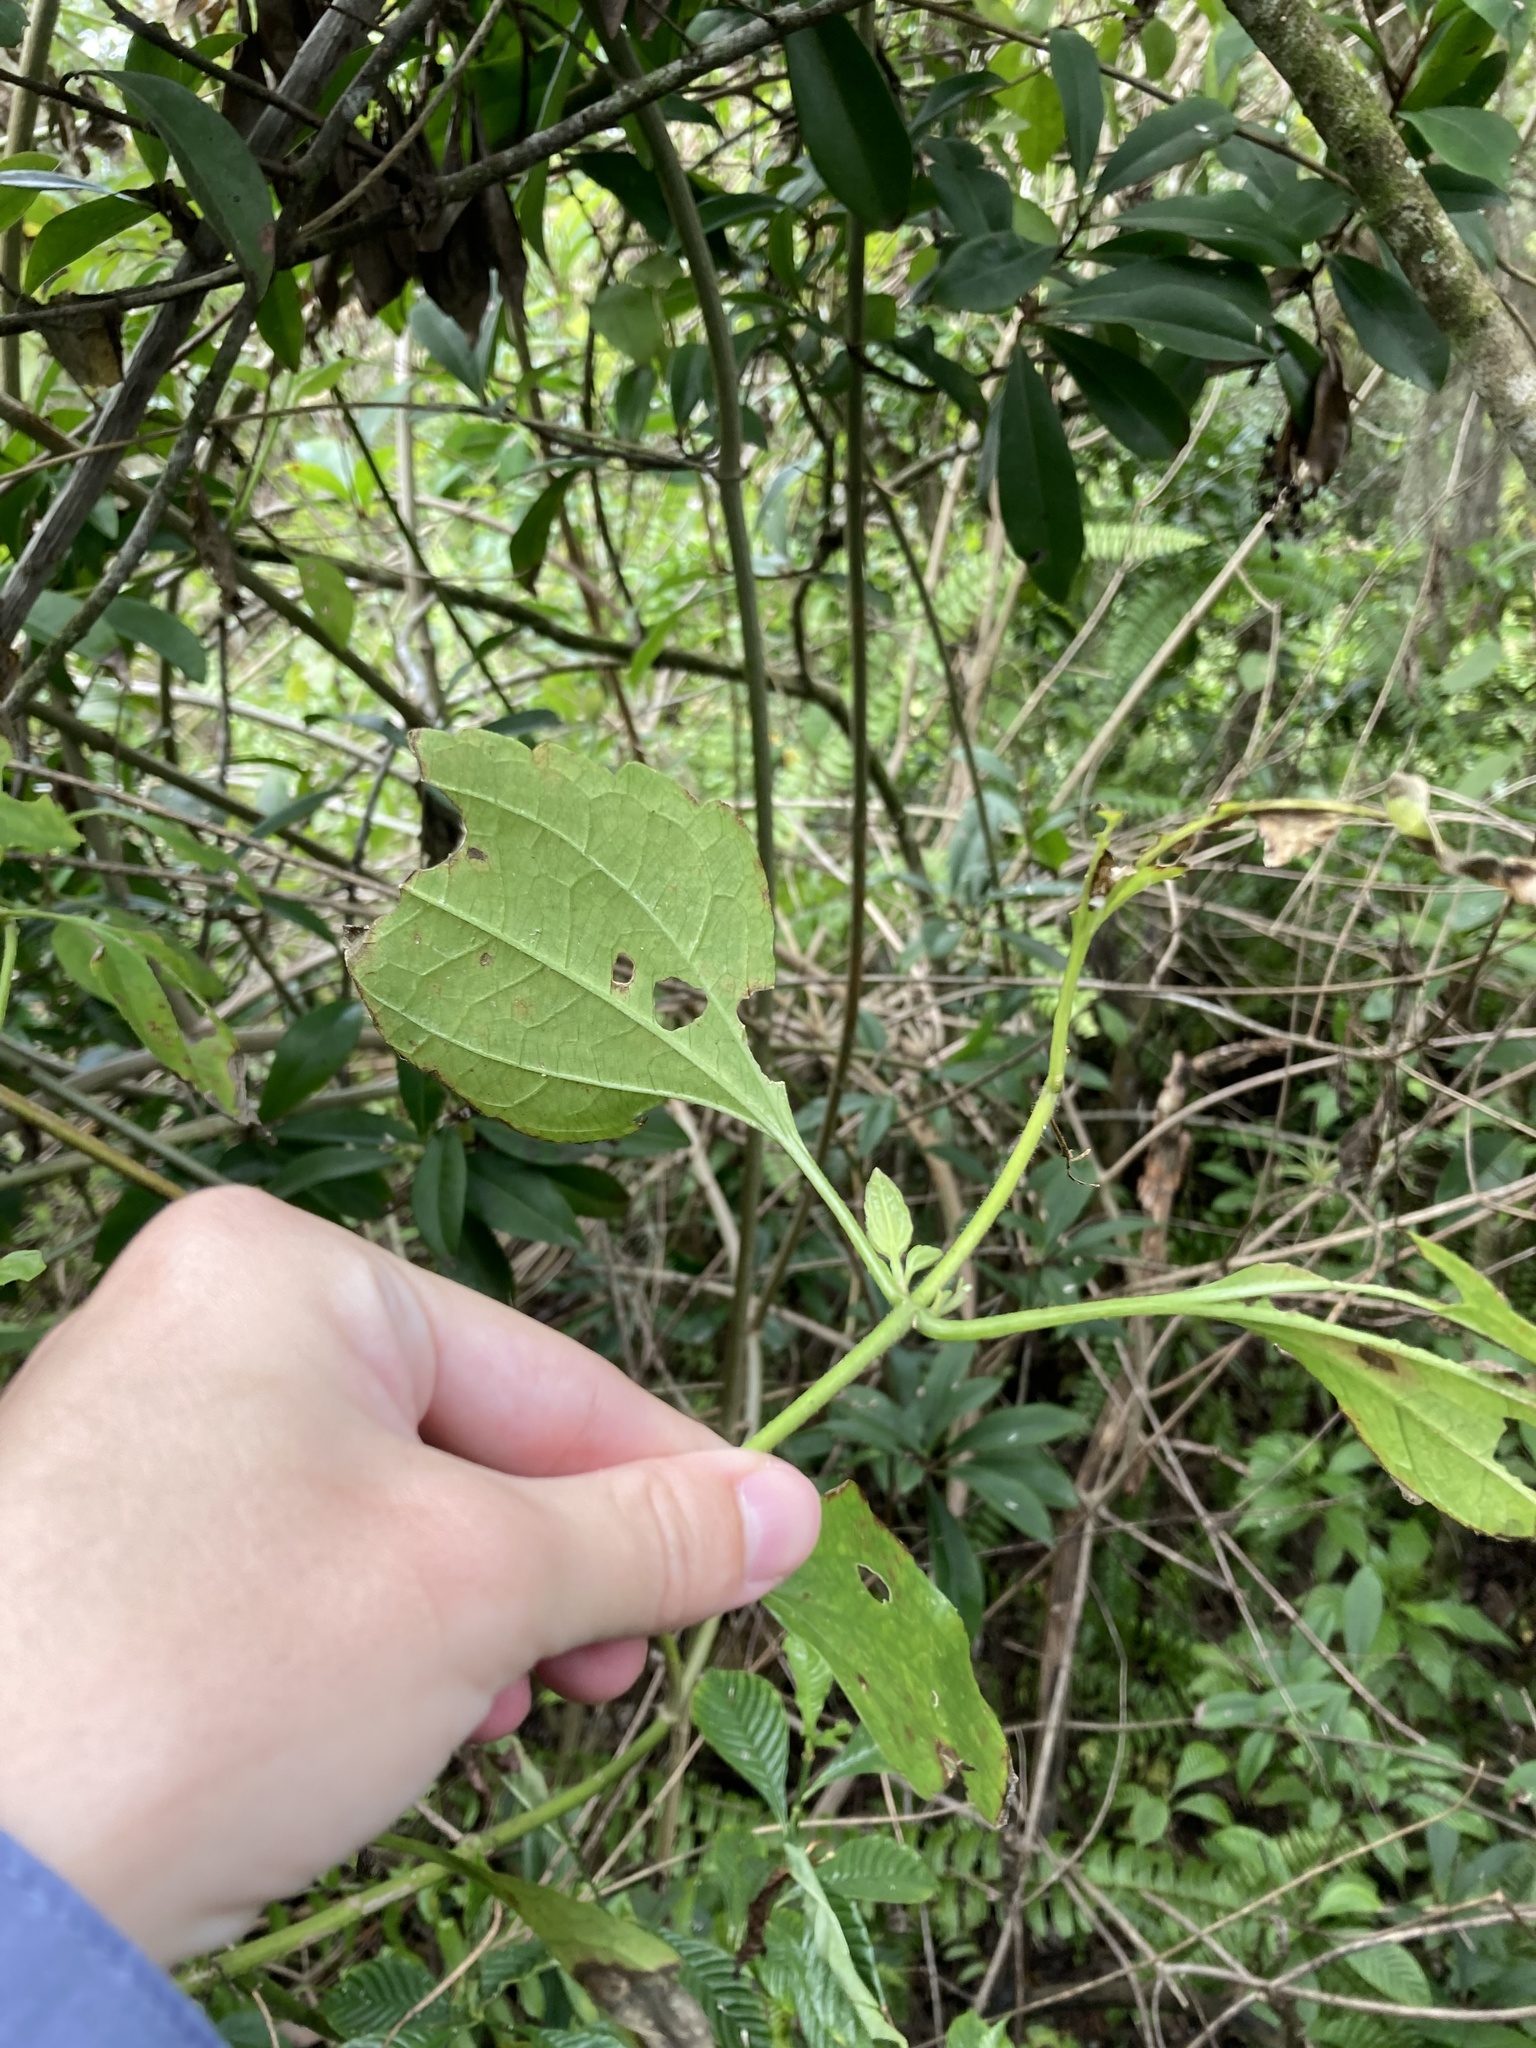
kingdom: Plantae
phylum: Tracheophyta
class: Magnoliopsida
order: Asterales
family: Asteraceae
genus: Chromolaena
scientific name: Chromolaena odorata
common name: Siamweed
